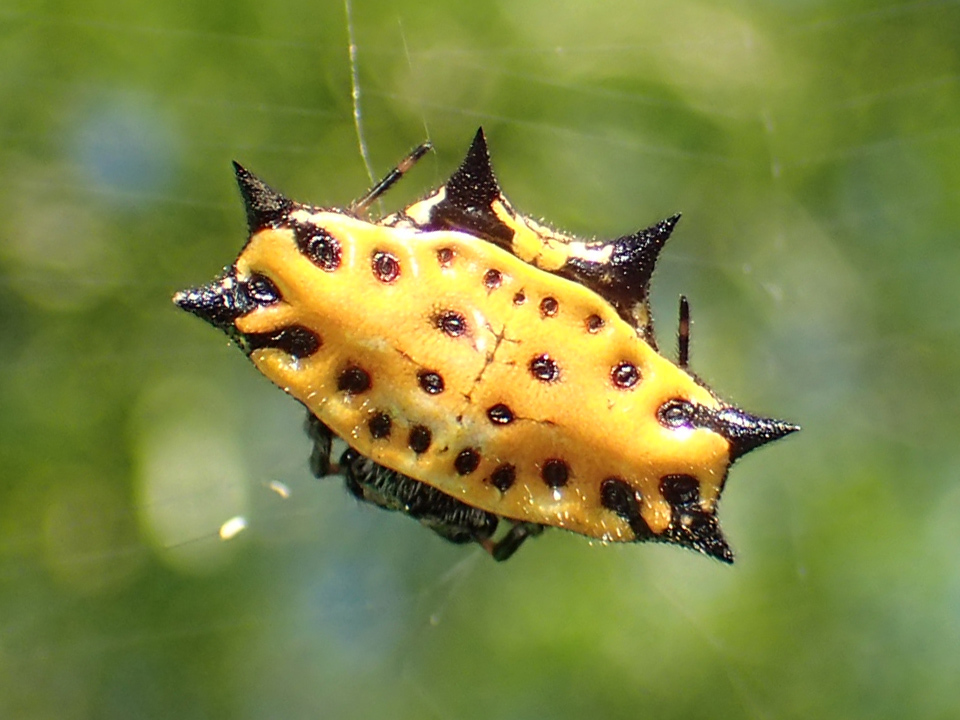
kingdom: Animalia
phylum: Arthropoda
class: Arachnida
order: Araneae
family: Araneidae
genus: Gasteracantha
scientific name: Gasteracantha cancriformis
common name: Orb weavers
